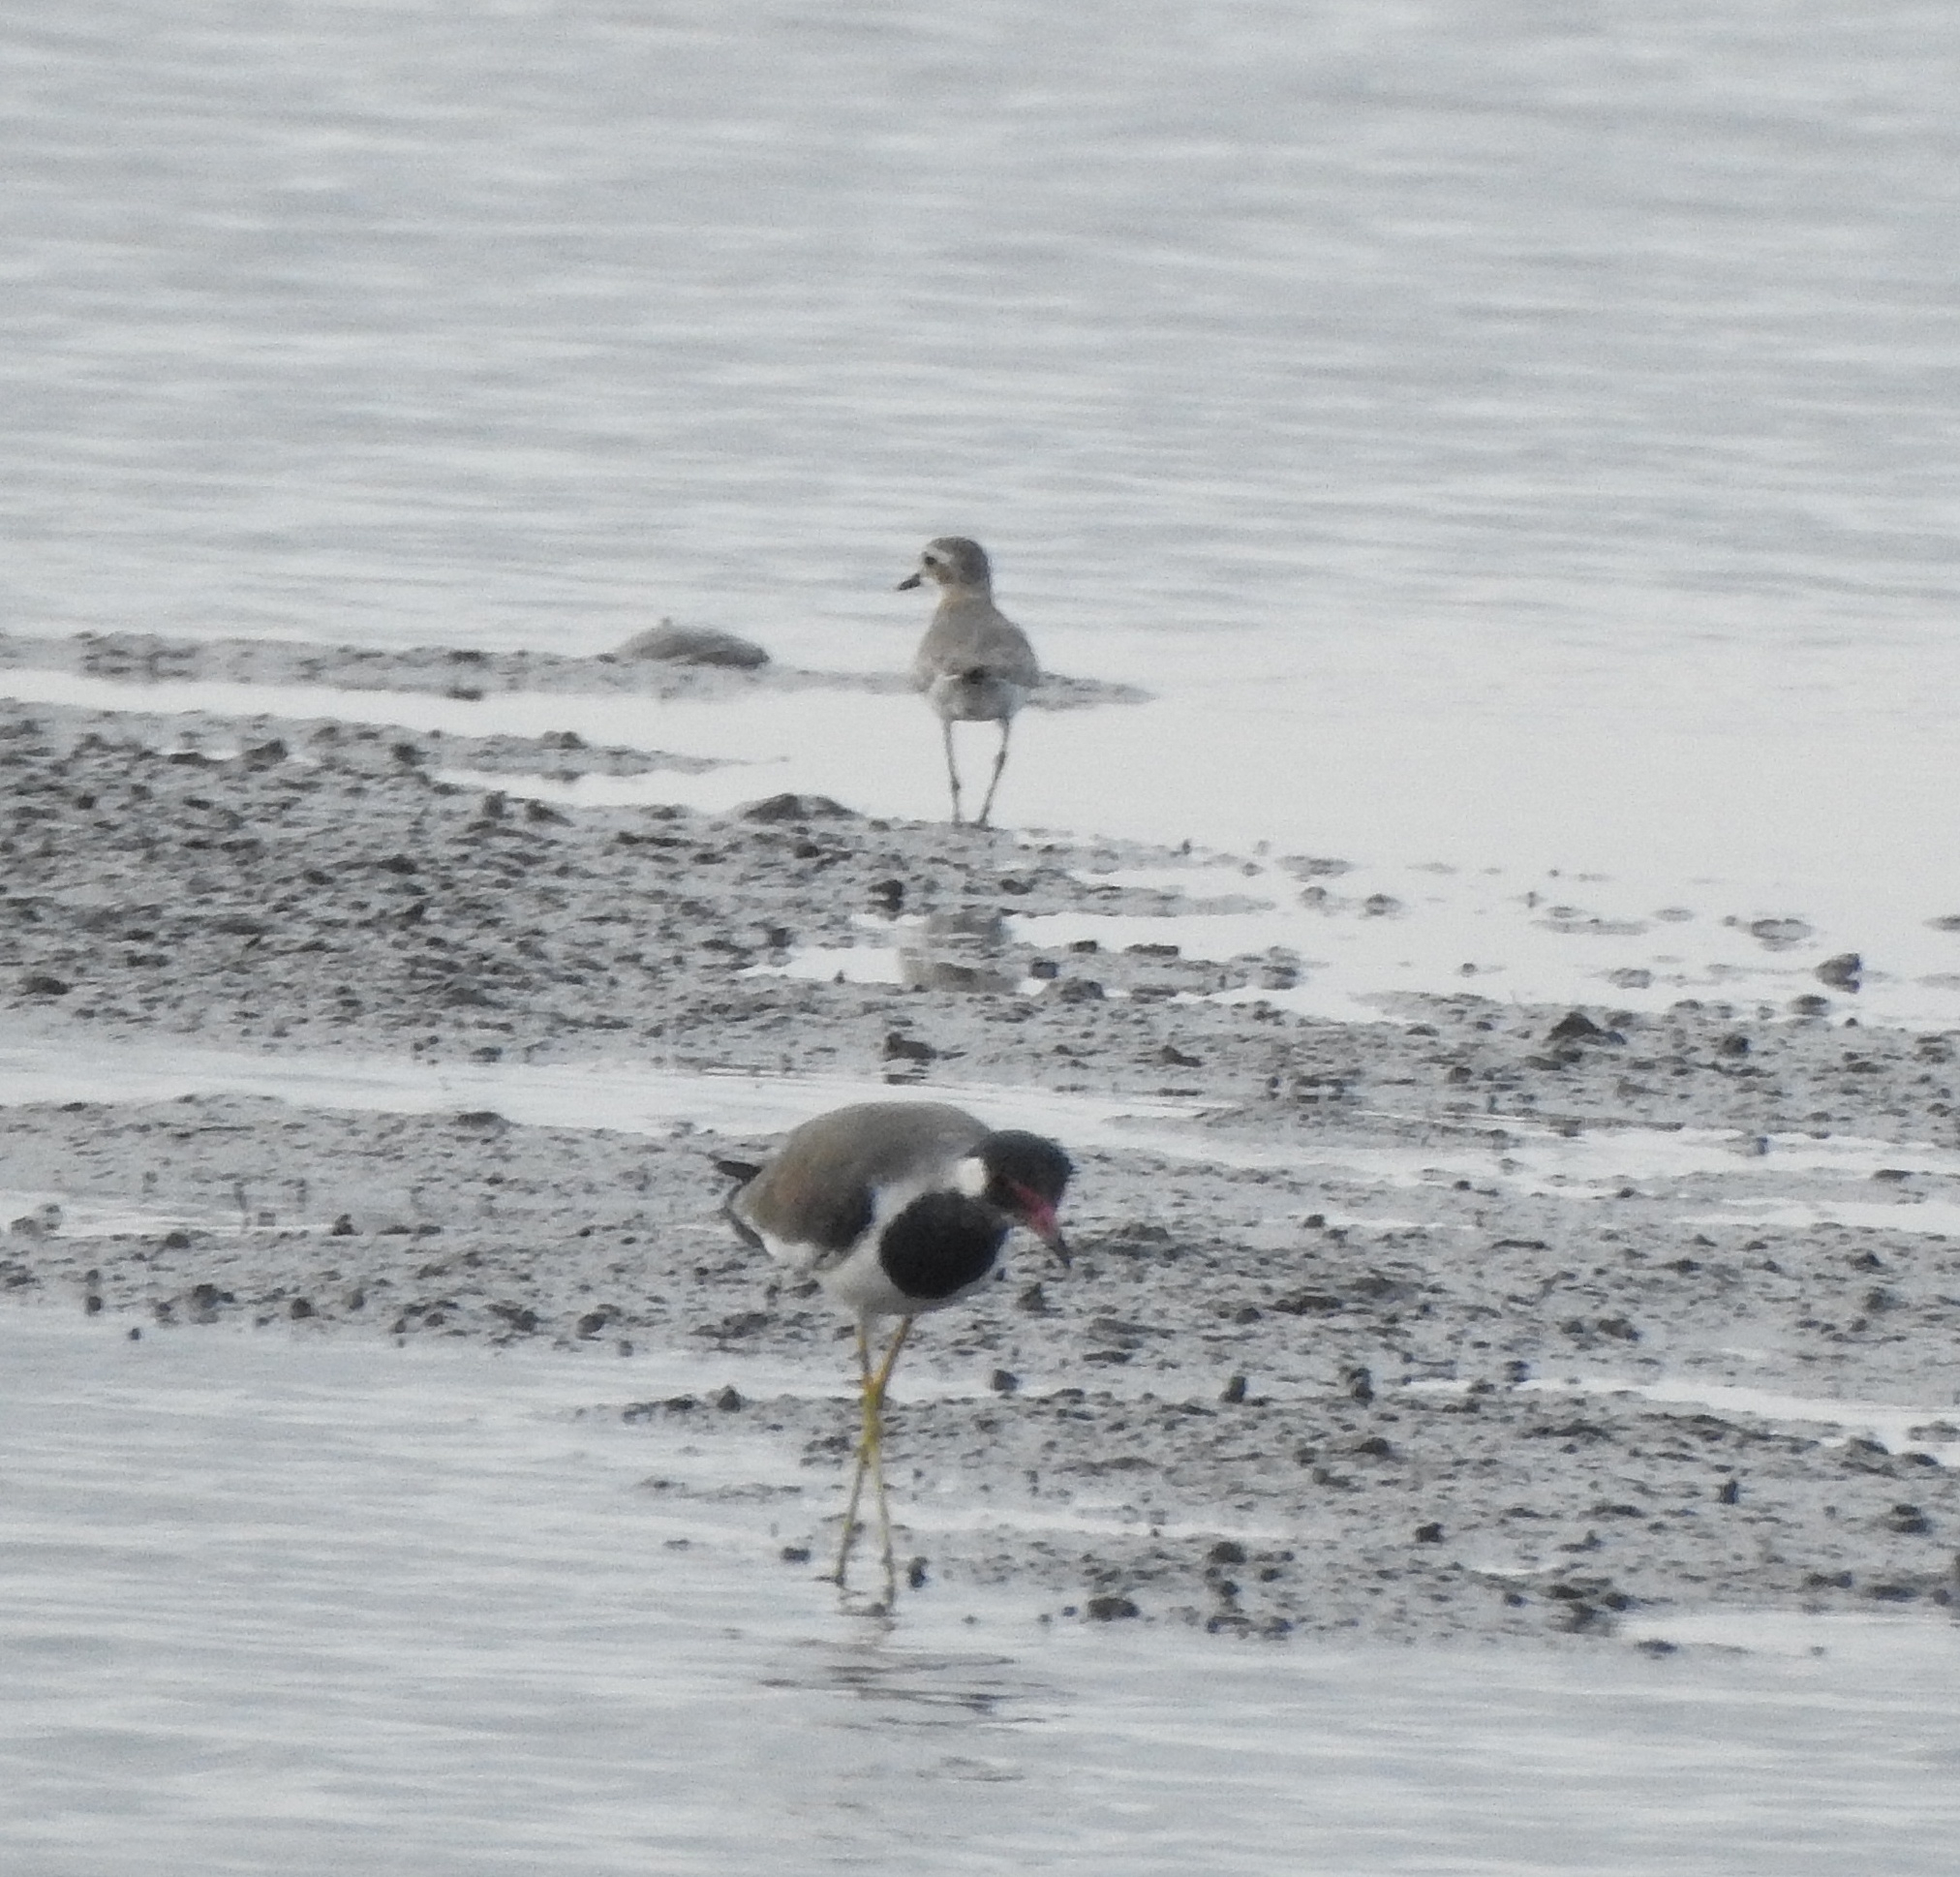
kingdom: Animalia
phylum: Chordata
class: Aves
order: Charadriiformes
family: Charadriidae
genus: Vanellus
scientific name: Vanellus indicus
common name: Red-wattled lapwing
